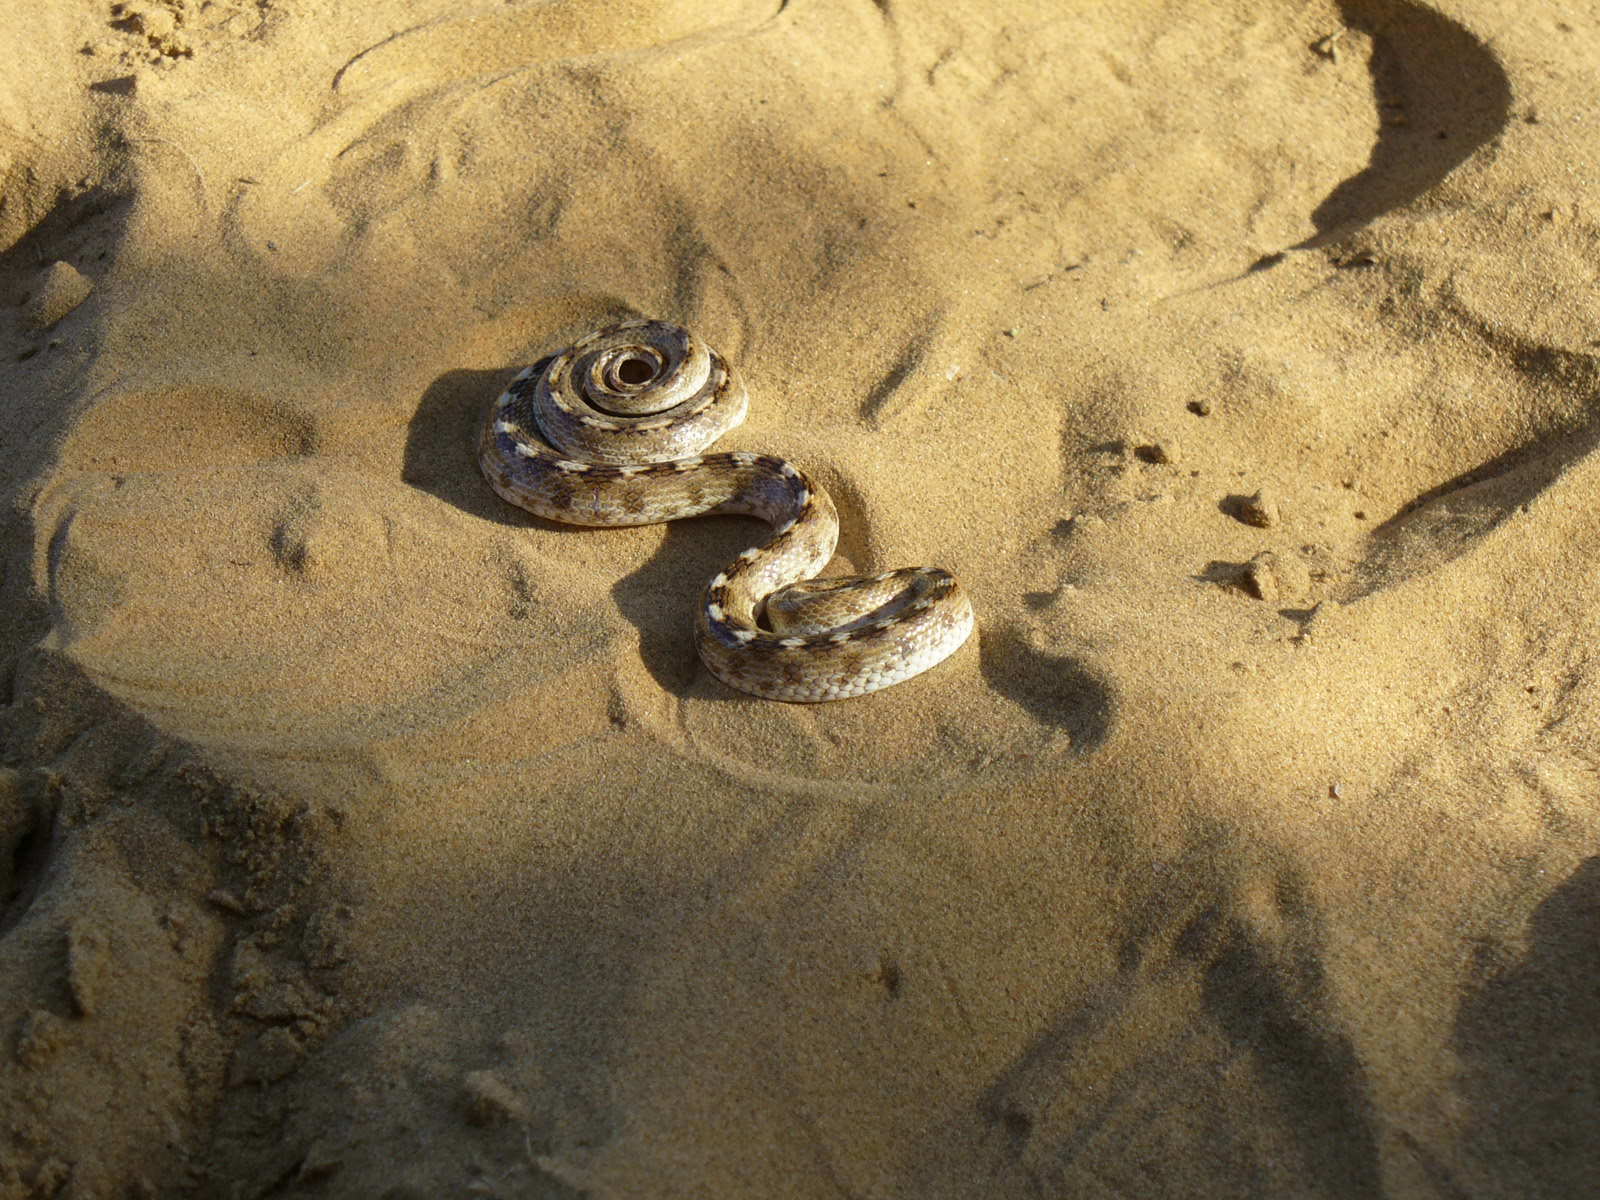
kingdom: Animalia
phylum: Chordata
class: Squamata
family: Colubridae
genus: Lytorhynchus
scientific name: Lytorhynchus paradoxus
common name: Sind longnose sand snake
